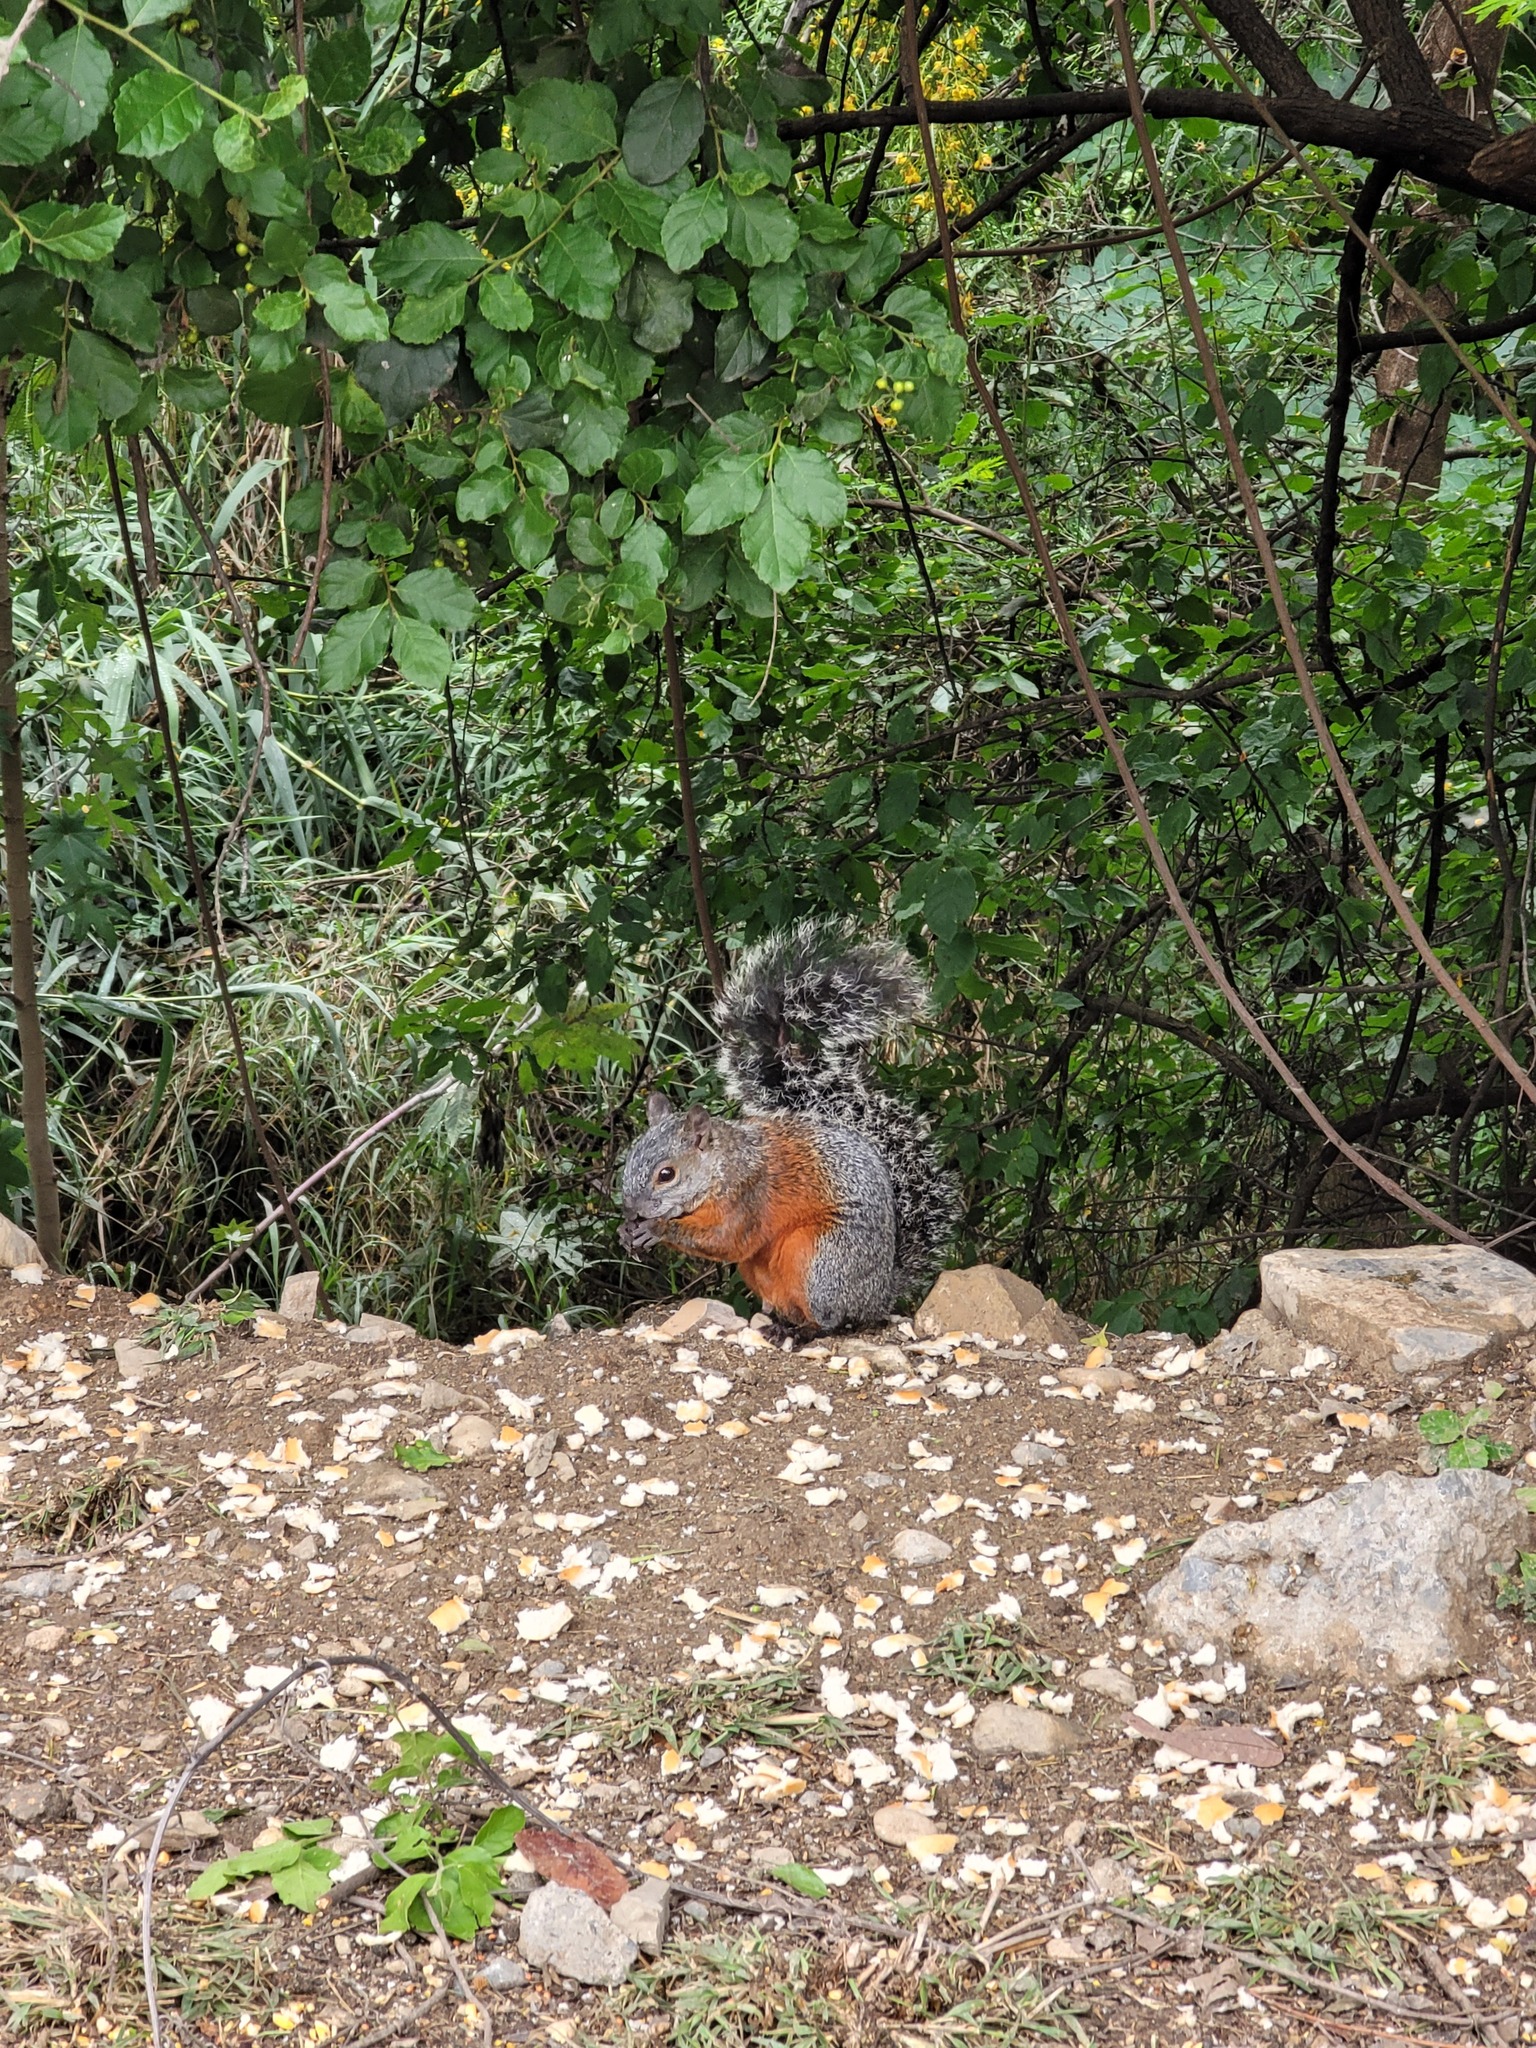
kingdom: Animalia
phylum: Chordata
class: Mammalia
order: Rodentia
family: Sciuridae
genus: Sciurus
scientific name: Sciurus aureogaster
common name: Red-bellied squirrel
